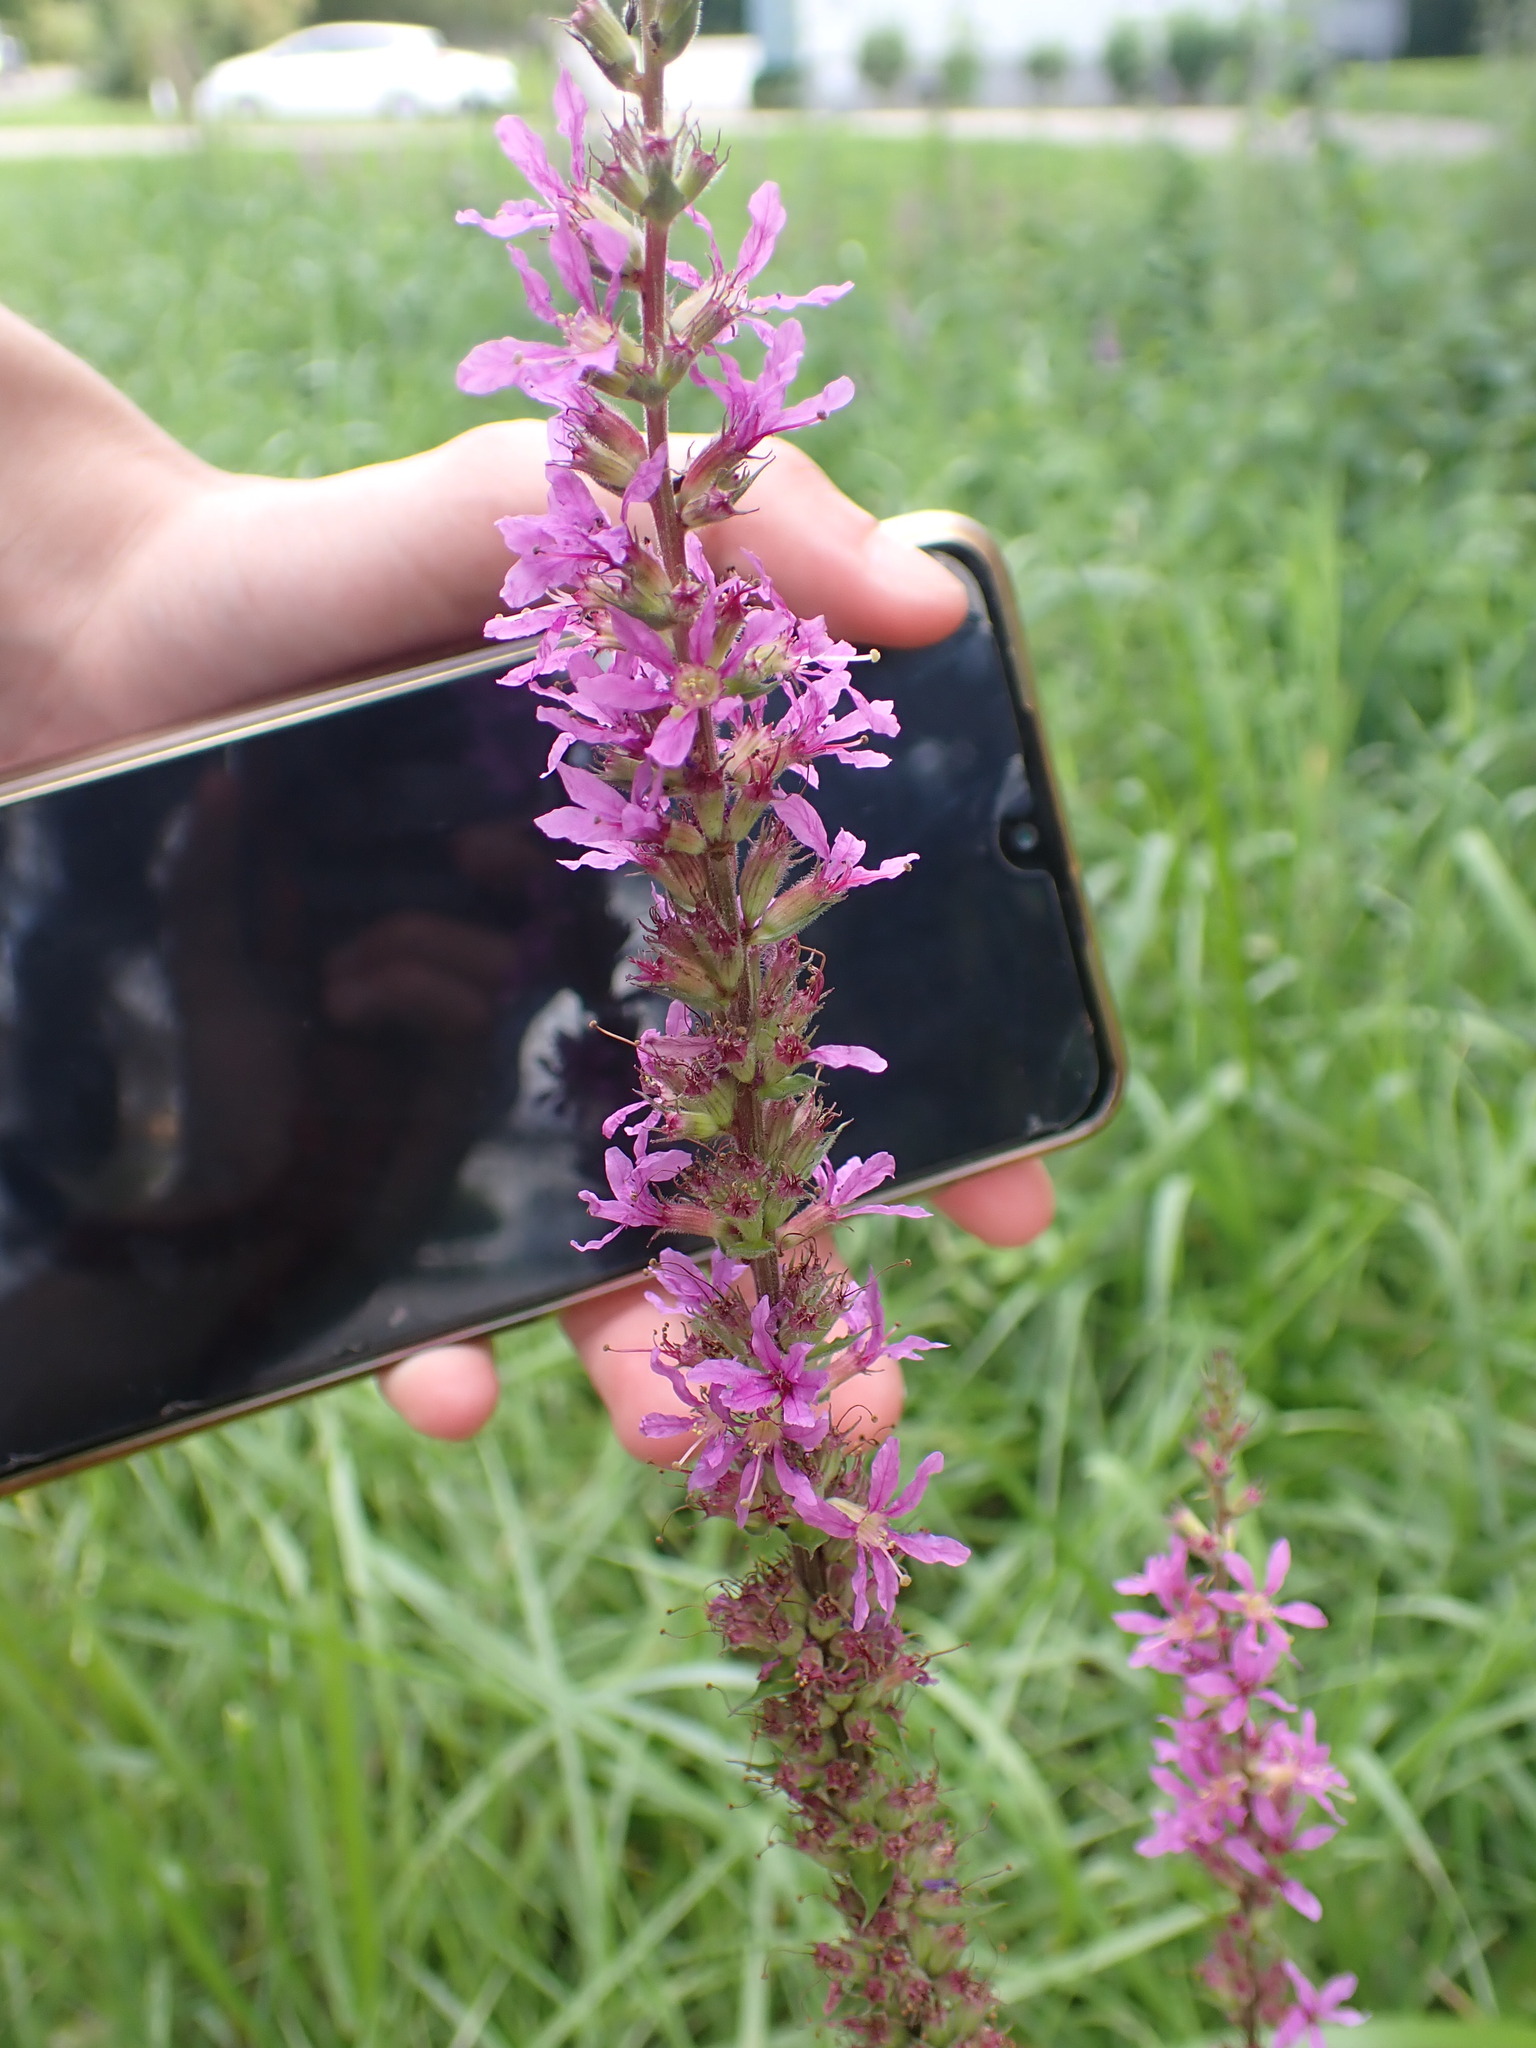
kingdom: Plantae
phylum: Tracheophyta
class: Magnoliopsida
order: Myrtales
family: Lythraceae
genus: Lythrum
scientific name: Lythrum salicaria
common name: Purple loosestrife
